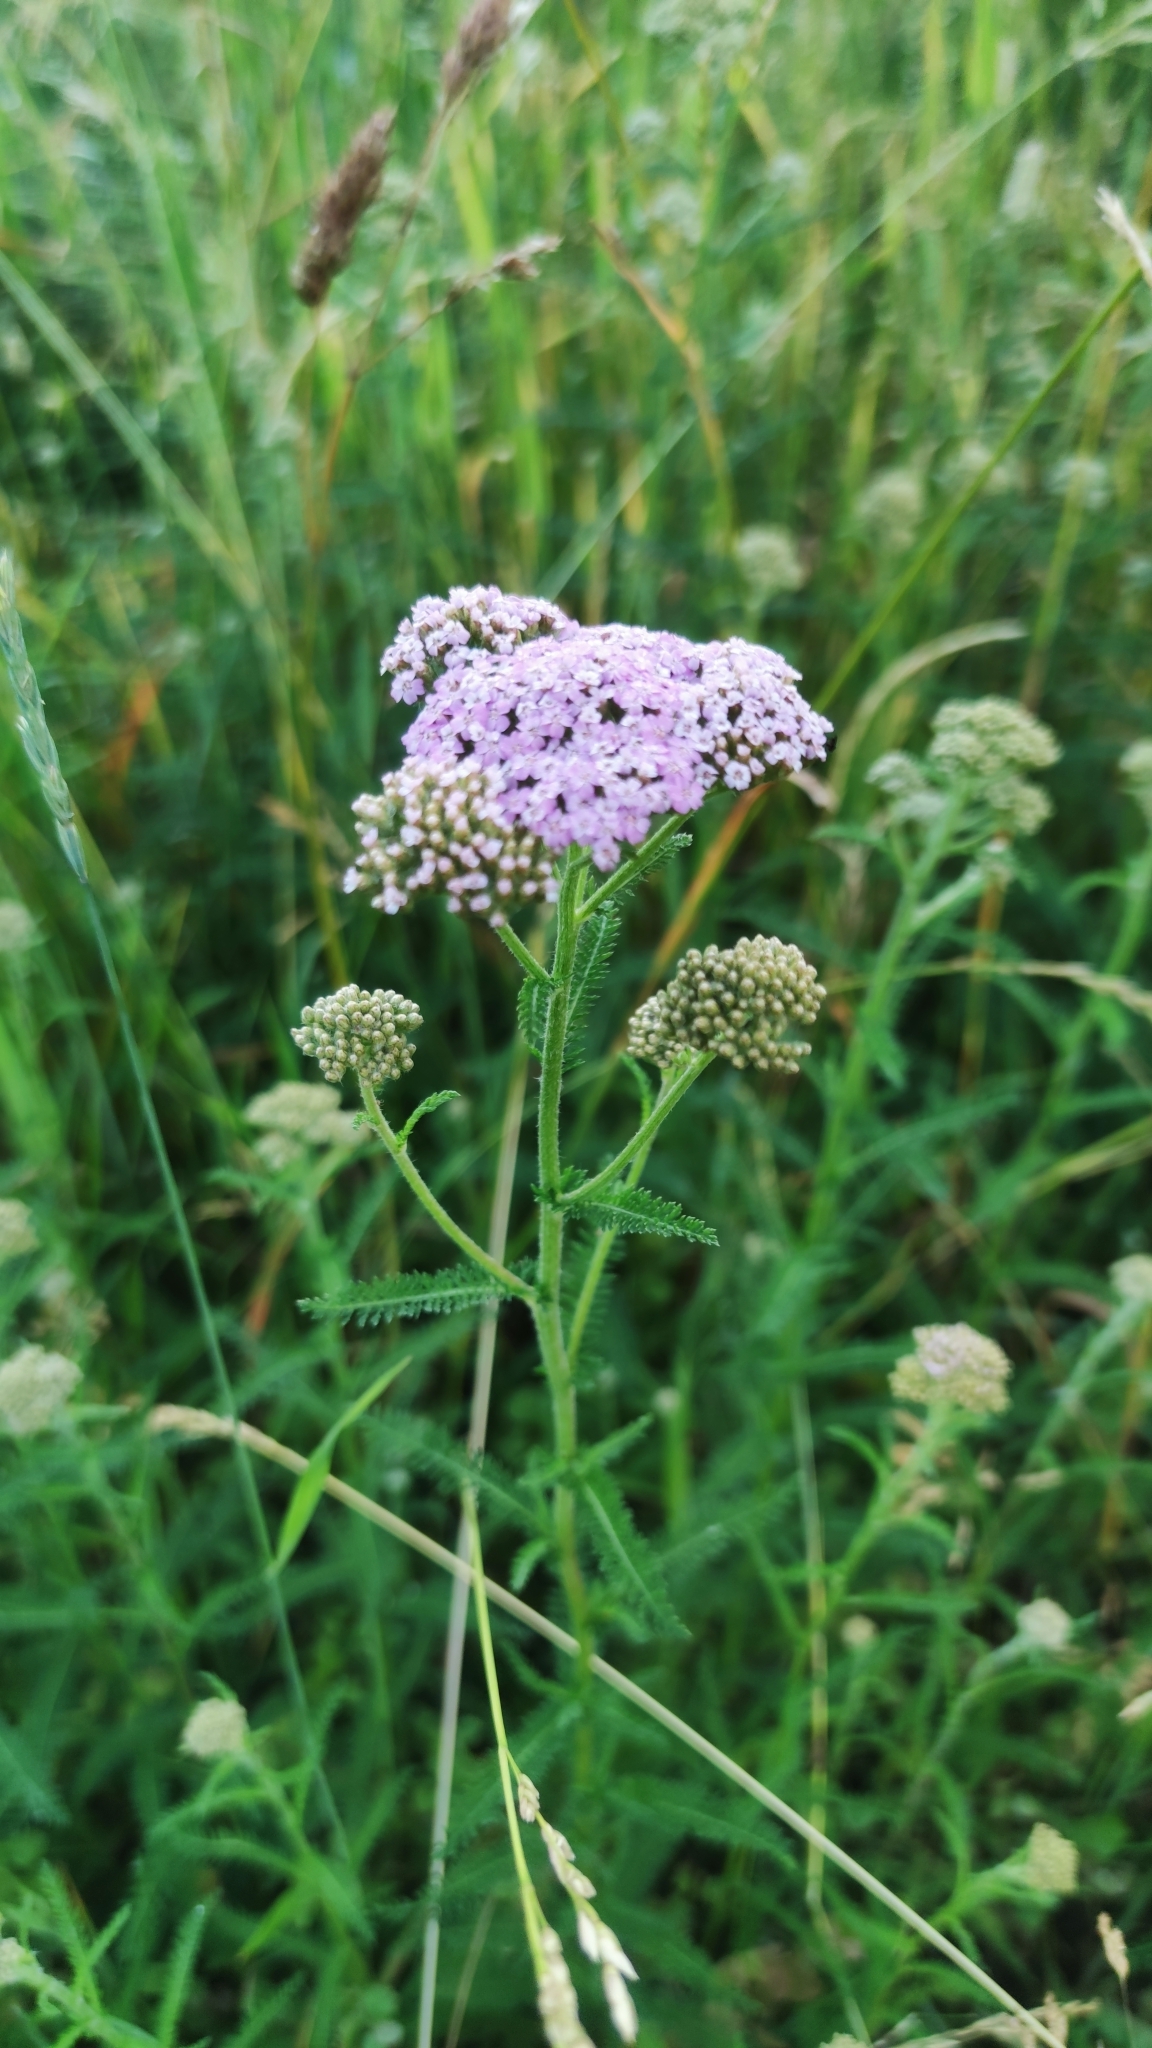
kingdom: Plantae
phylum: Tracheophyta
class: Magnoliopsida
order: Asterales
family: Asteraceae
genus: Achillea
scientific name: Achillea millefolium
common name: Yarrow
